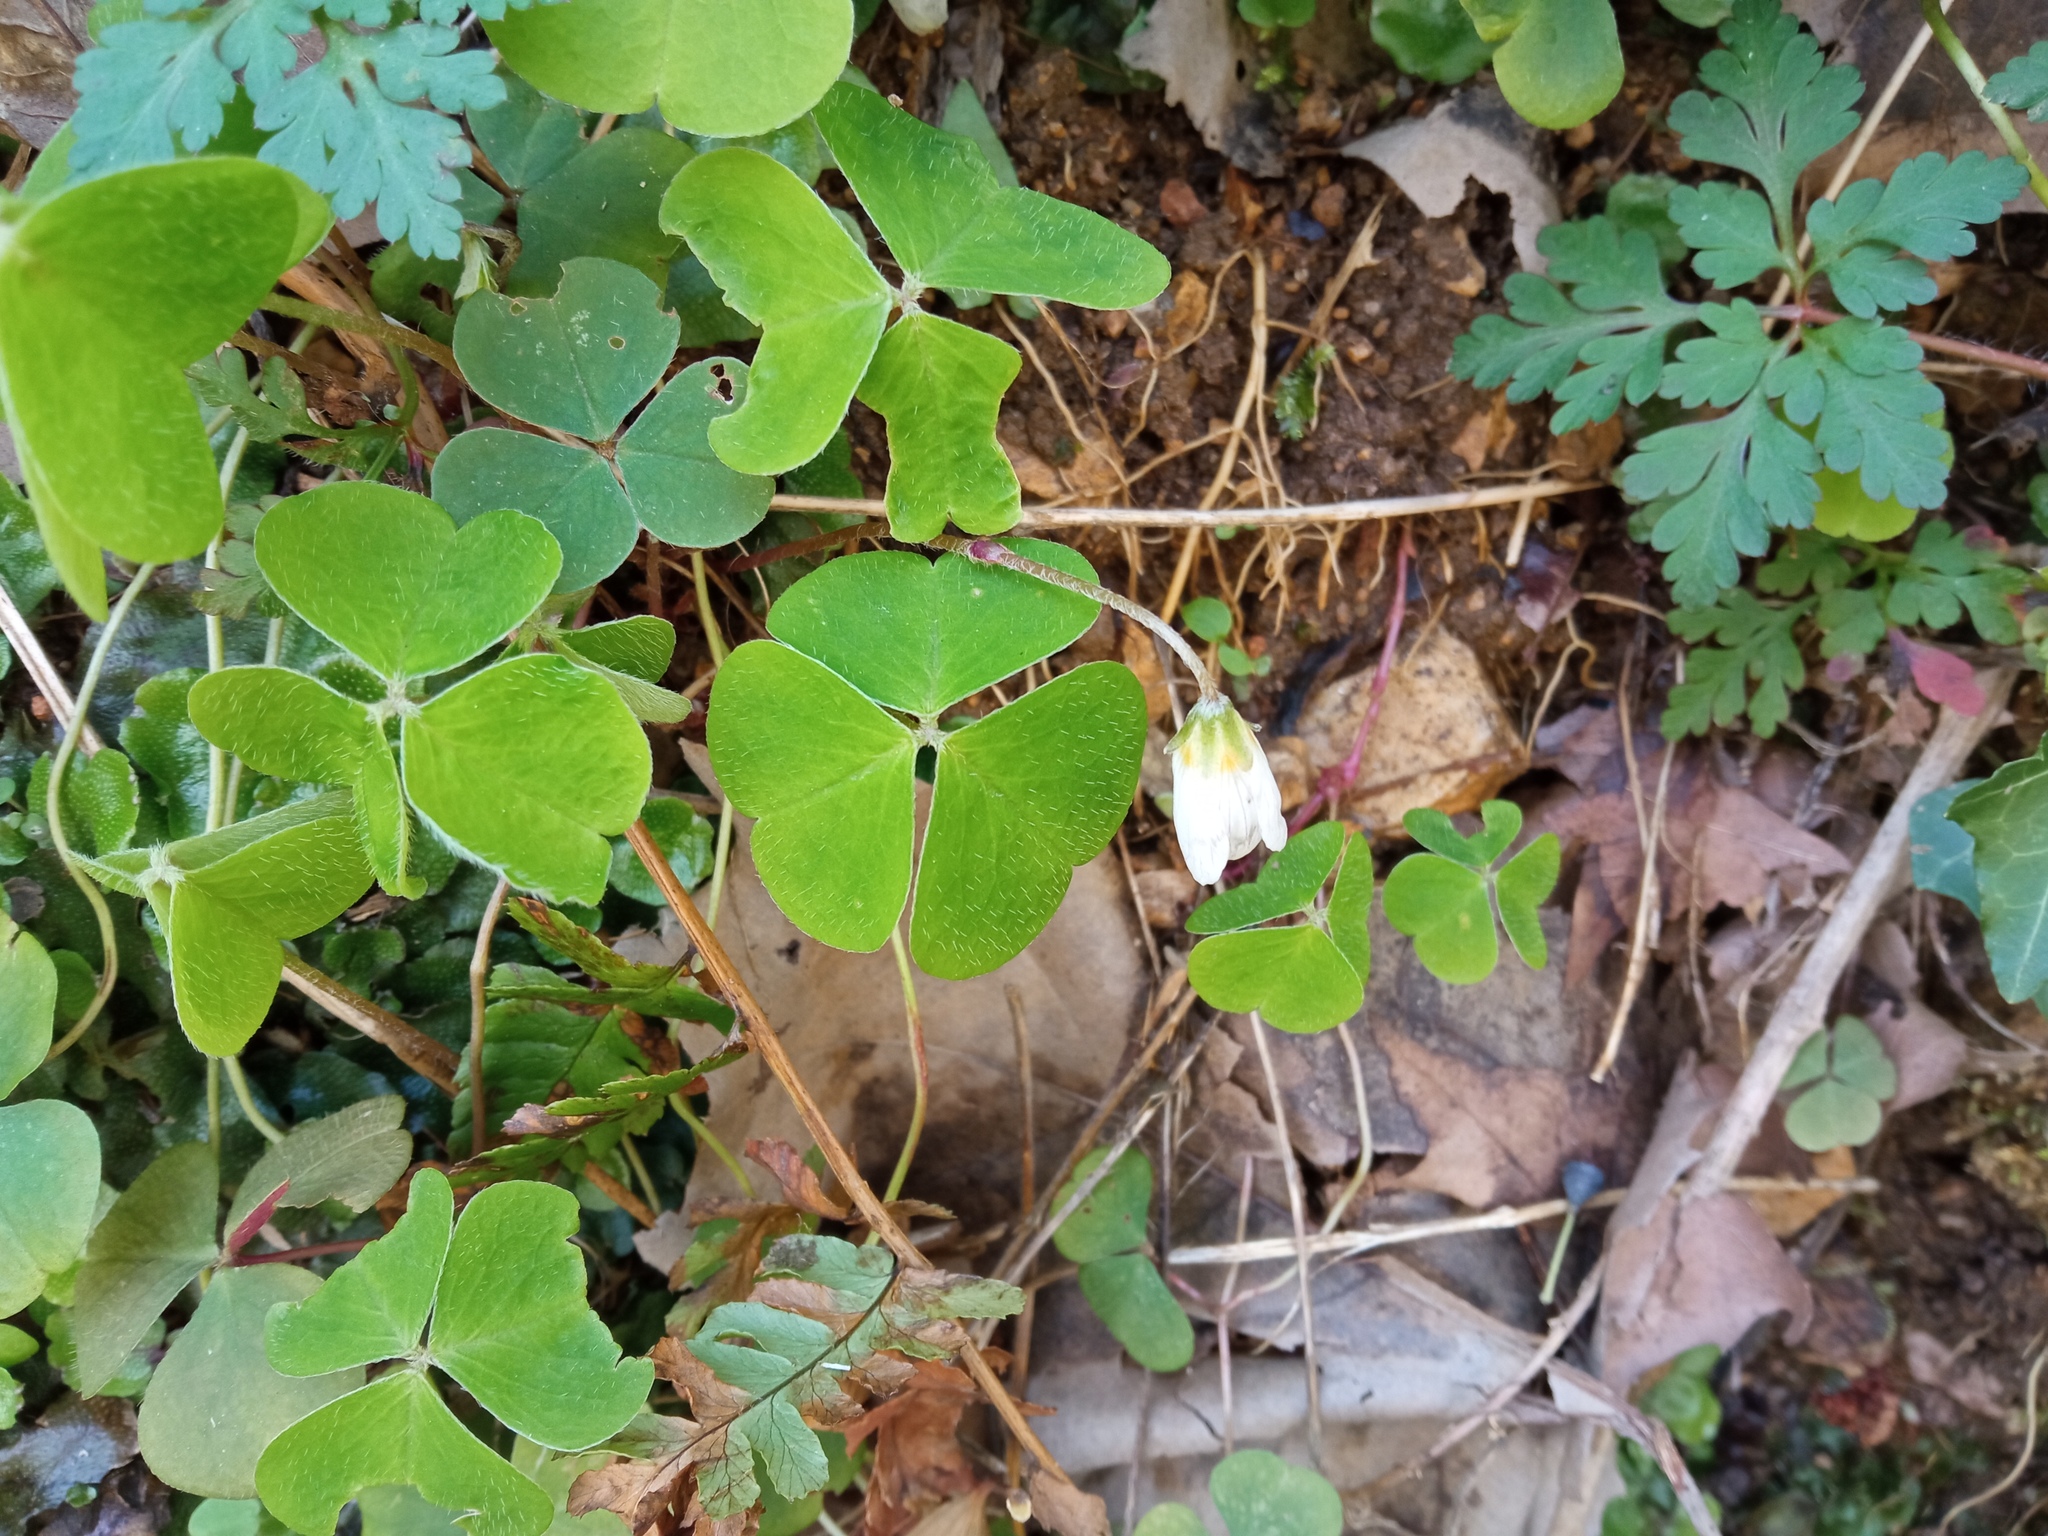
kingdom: Plantae
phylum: Tracheophyta
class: Magnoliopsida
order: Oxalidales
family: Oxalidaceae
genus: Oxalis
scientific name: Oxalis acetosella
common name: Wood-sorrel
